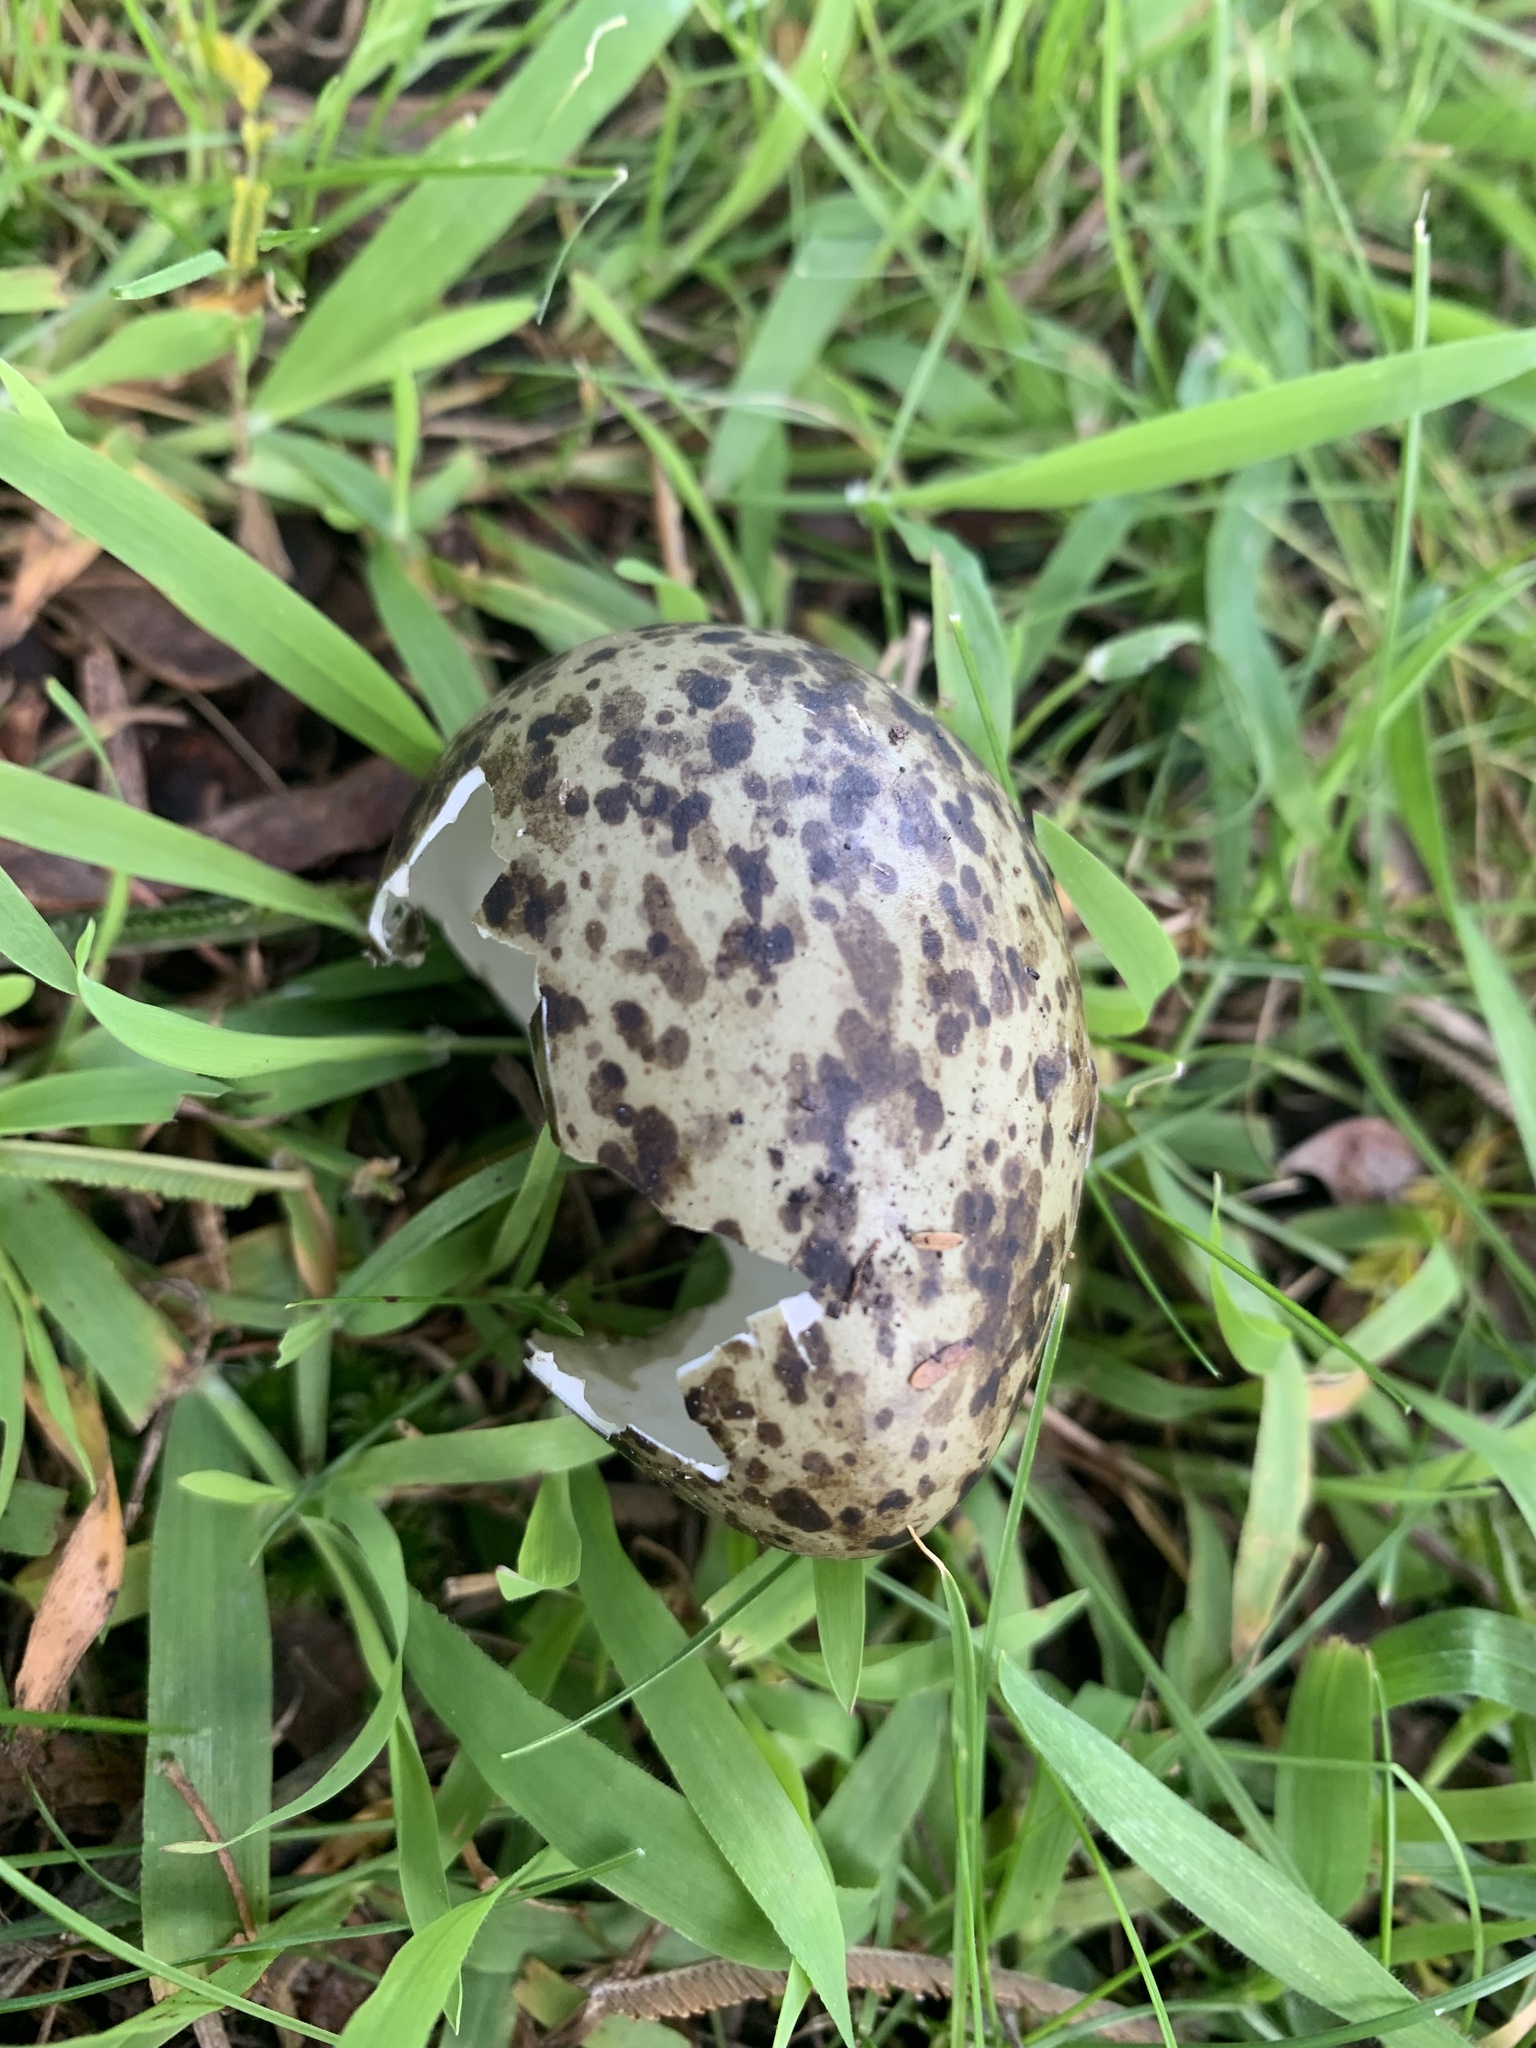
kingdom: Animalia
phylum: Chordata
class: Aves
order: Charadriiformes
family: Charadriidae
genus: Vanellus
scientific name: Vanellus miles
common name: Masked lapwing
